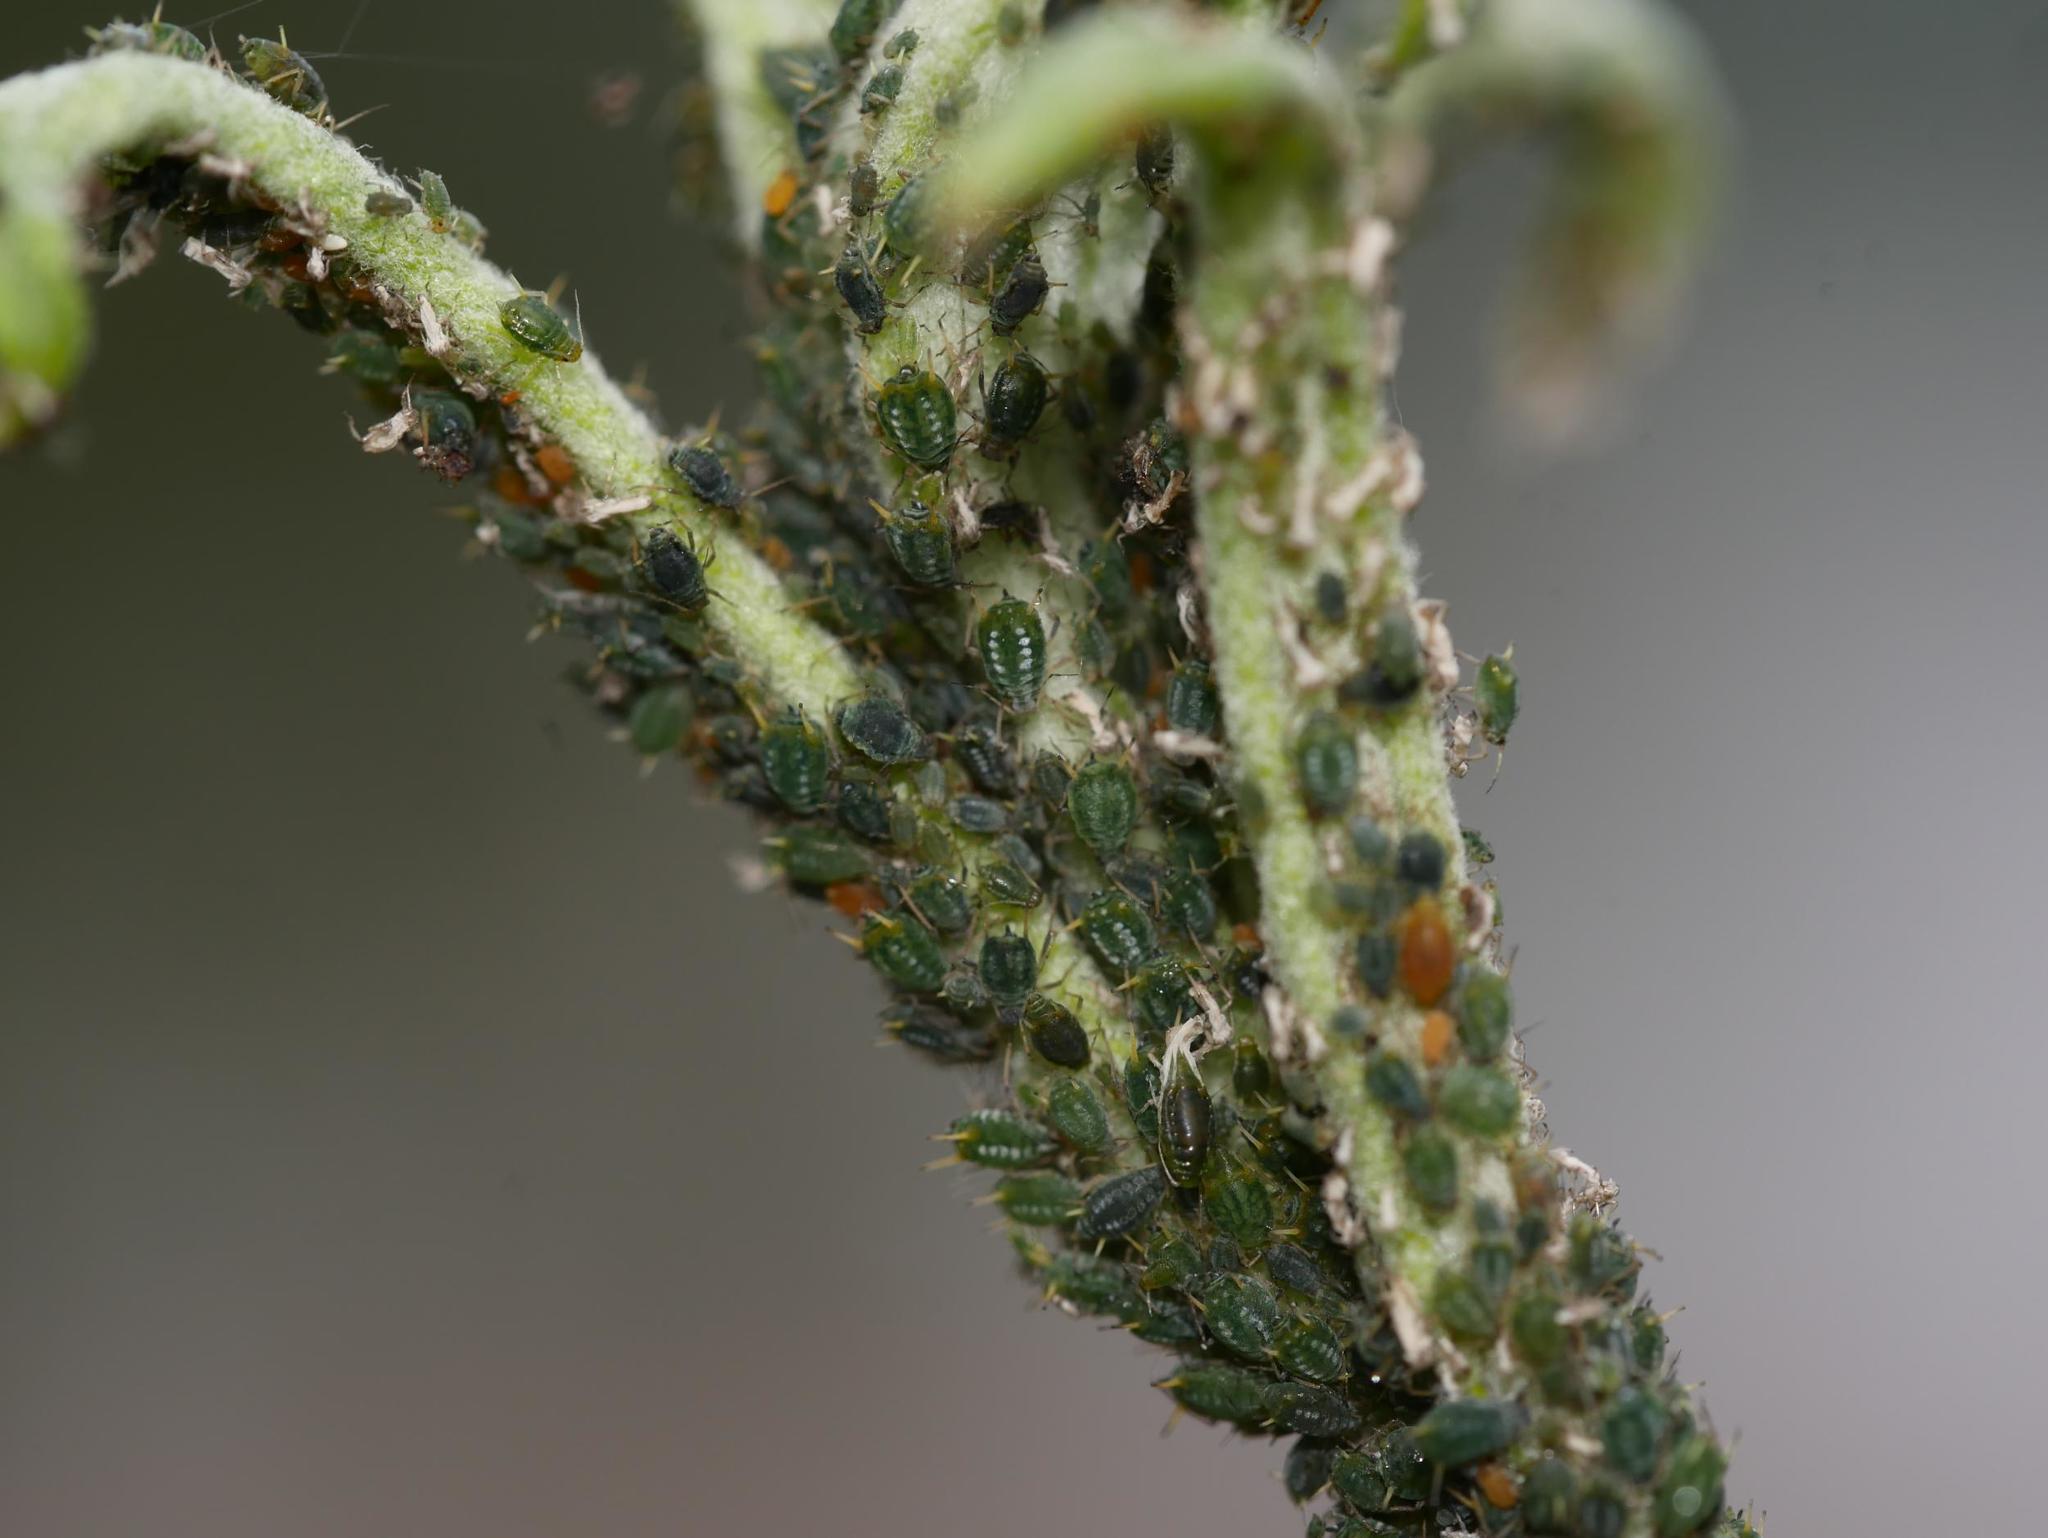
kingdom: Animalia
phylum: Arthropoda
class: Insecta
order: Hemiptera
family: Aphididae
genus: Aphis
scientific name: Aphis farinosa
